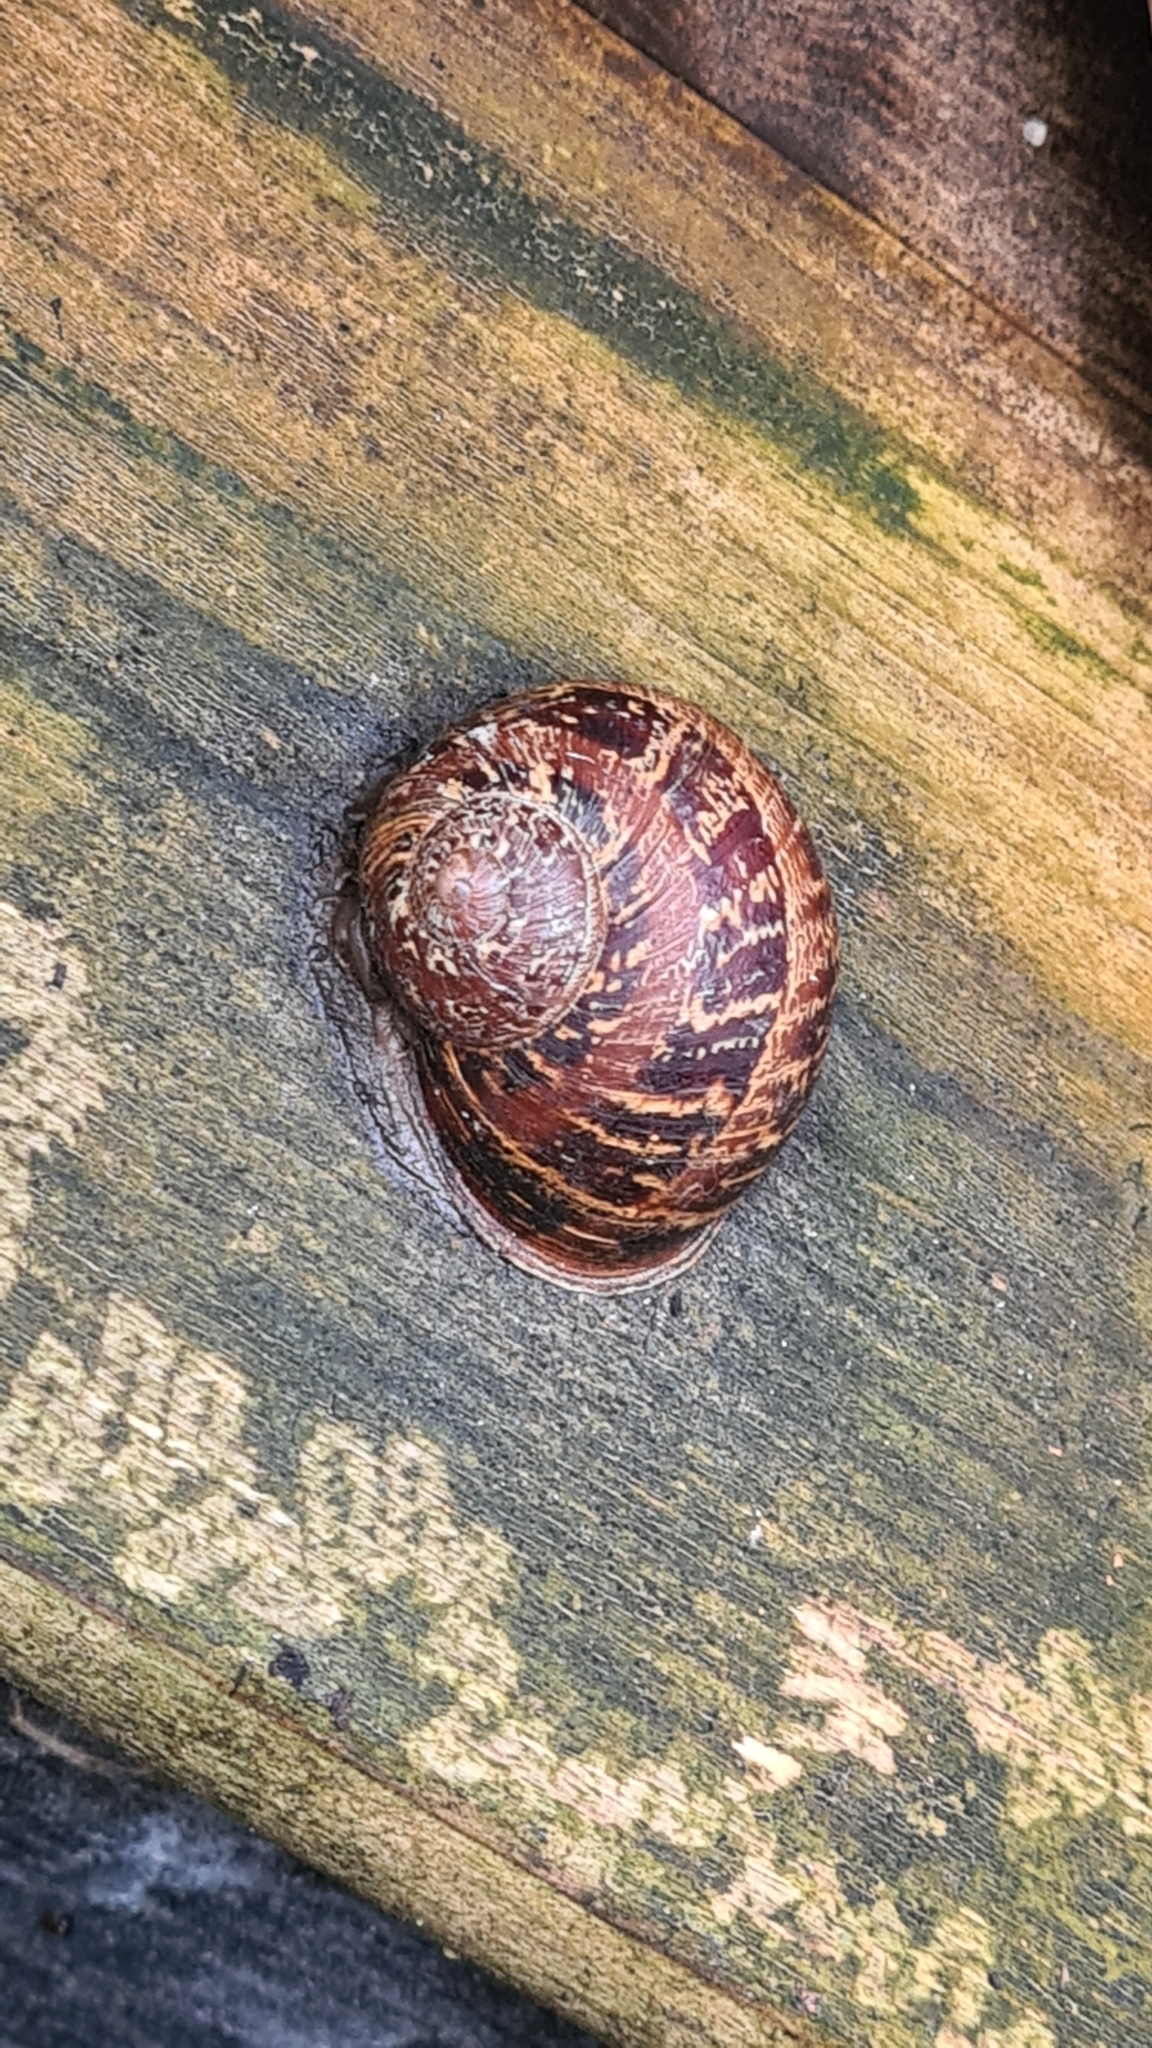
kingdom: Animalia
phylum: Mollusca
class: Gastropoda
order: Stylommatophora
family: Helicidae
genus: Cornu
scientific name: Cornu aspersum
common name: Brown garden snail
